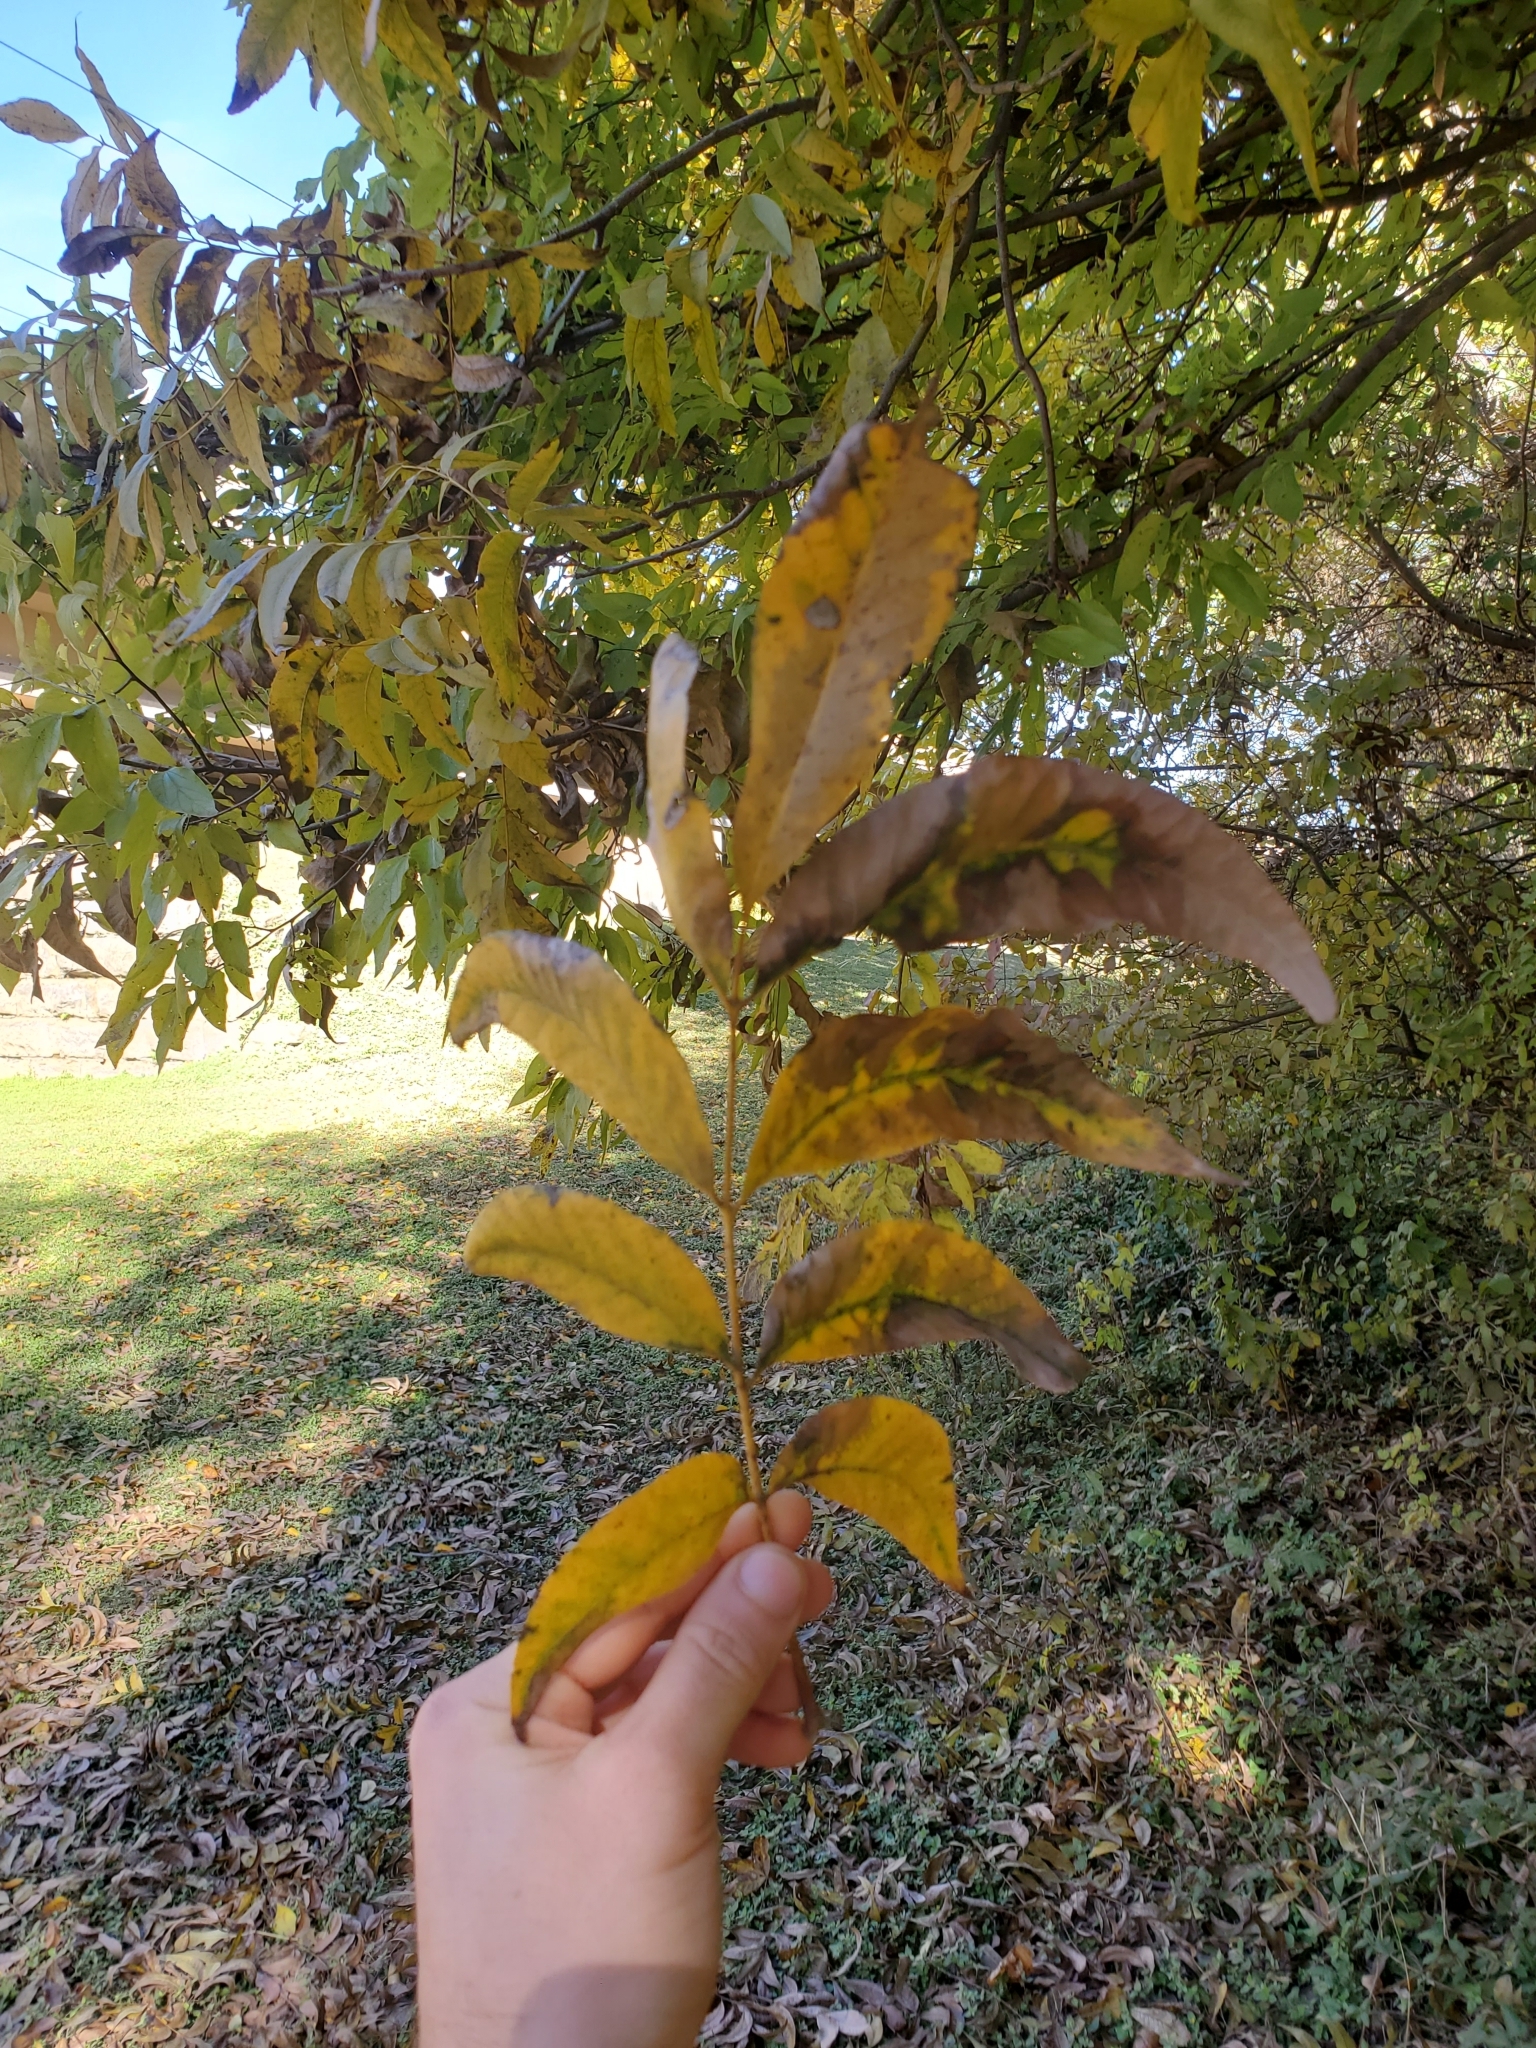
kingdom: Plantae
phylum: Tracheophyta
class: Magnoliopsida
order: Fagales
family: Juglandaceae
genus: Carya
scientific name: Carya illinoinensis
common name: Pecan
